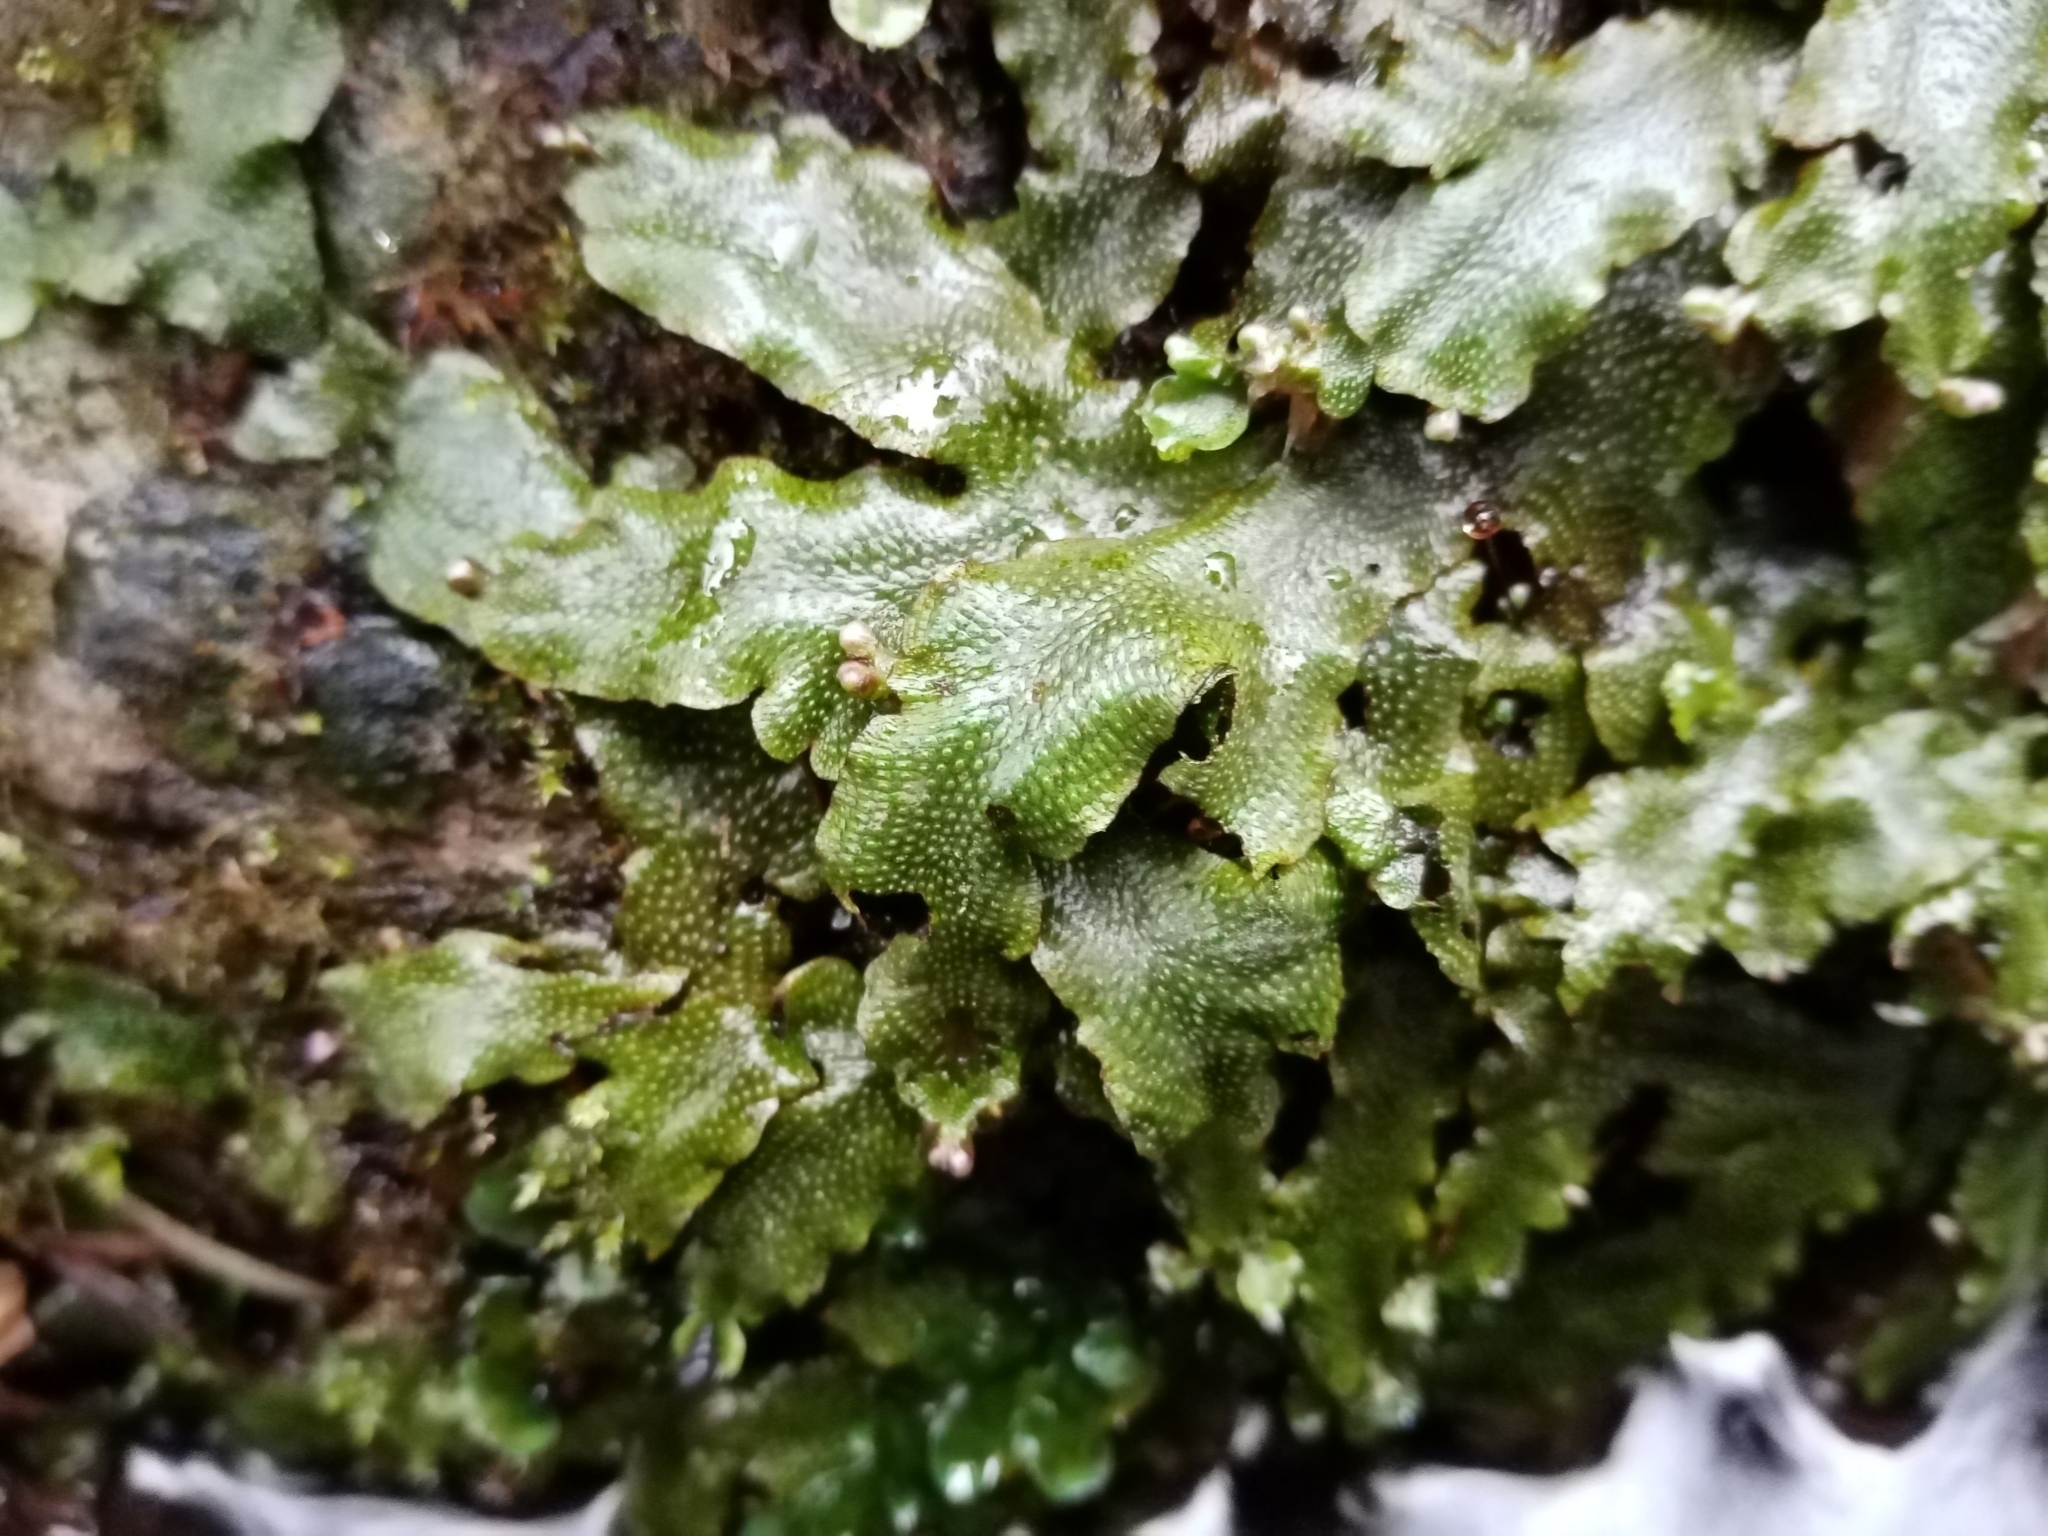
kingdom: Plantae
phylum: Marchantiophyta
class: Marchantiopsida
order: Marchantiales
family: Conocephalaceae
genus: Conocephalum
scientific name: Conocephalum conicum
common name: Great scented liverwort
